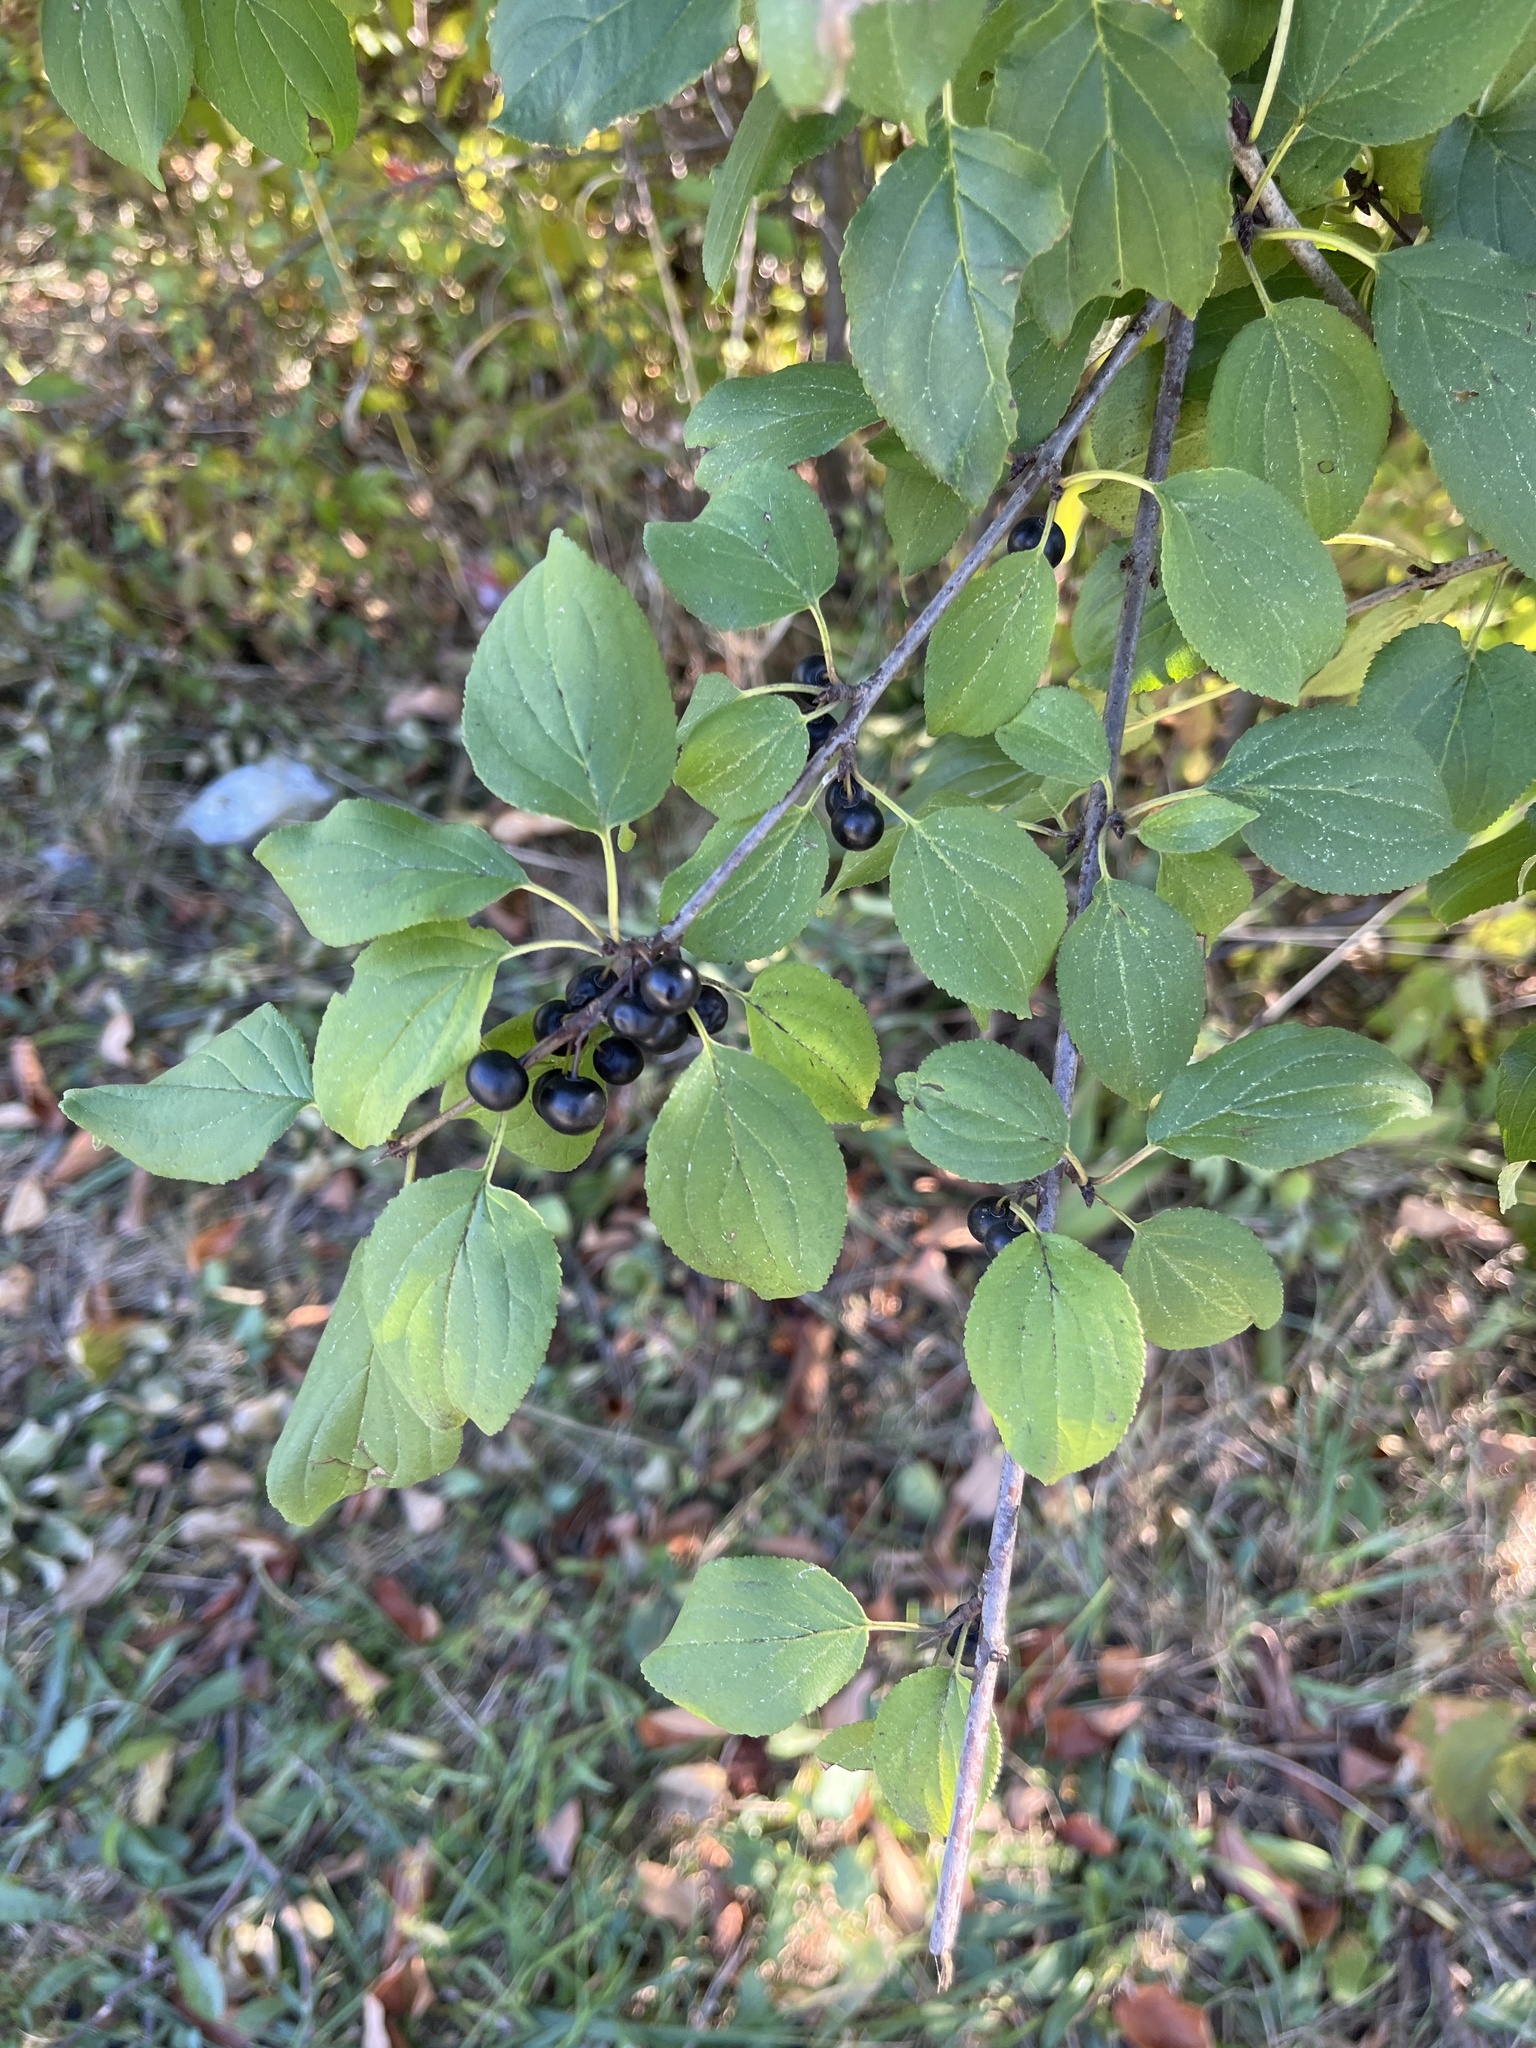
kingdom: Plantae
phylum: Tracheophyta
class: Magnoliopsida
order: Rosales
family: Rhamnaceae
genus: Rhamnus
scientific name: Rhamnus cathartica
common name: Common buckthorn
